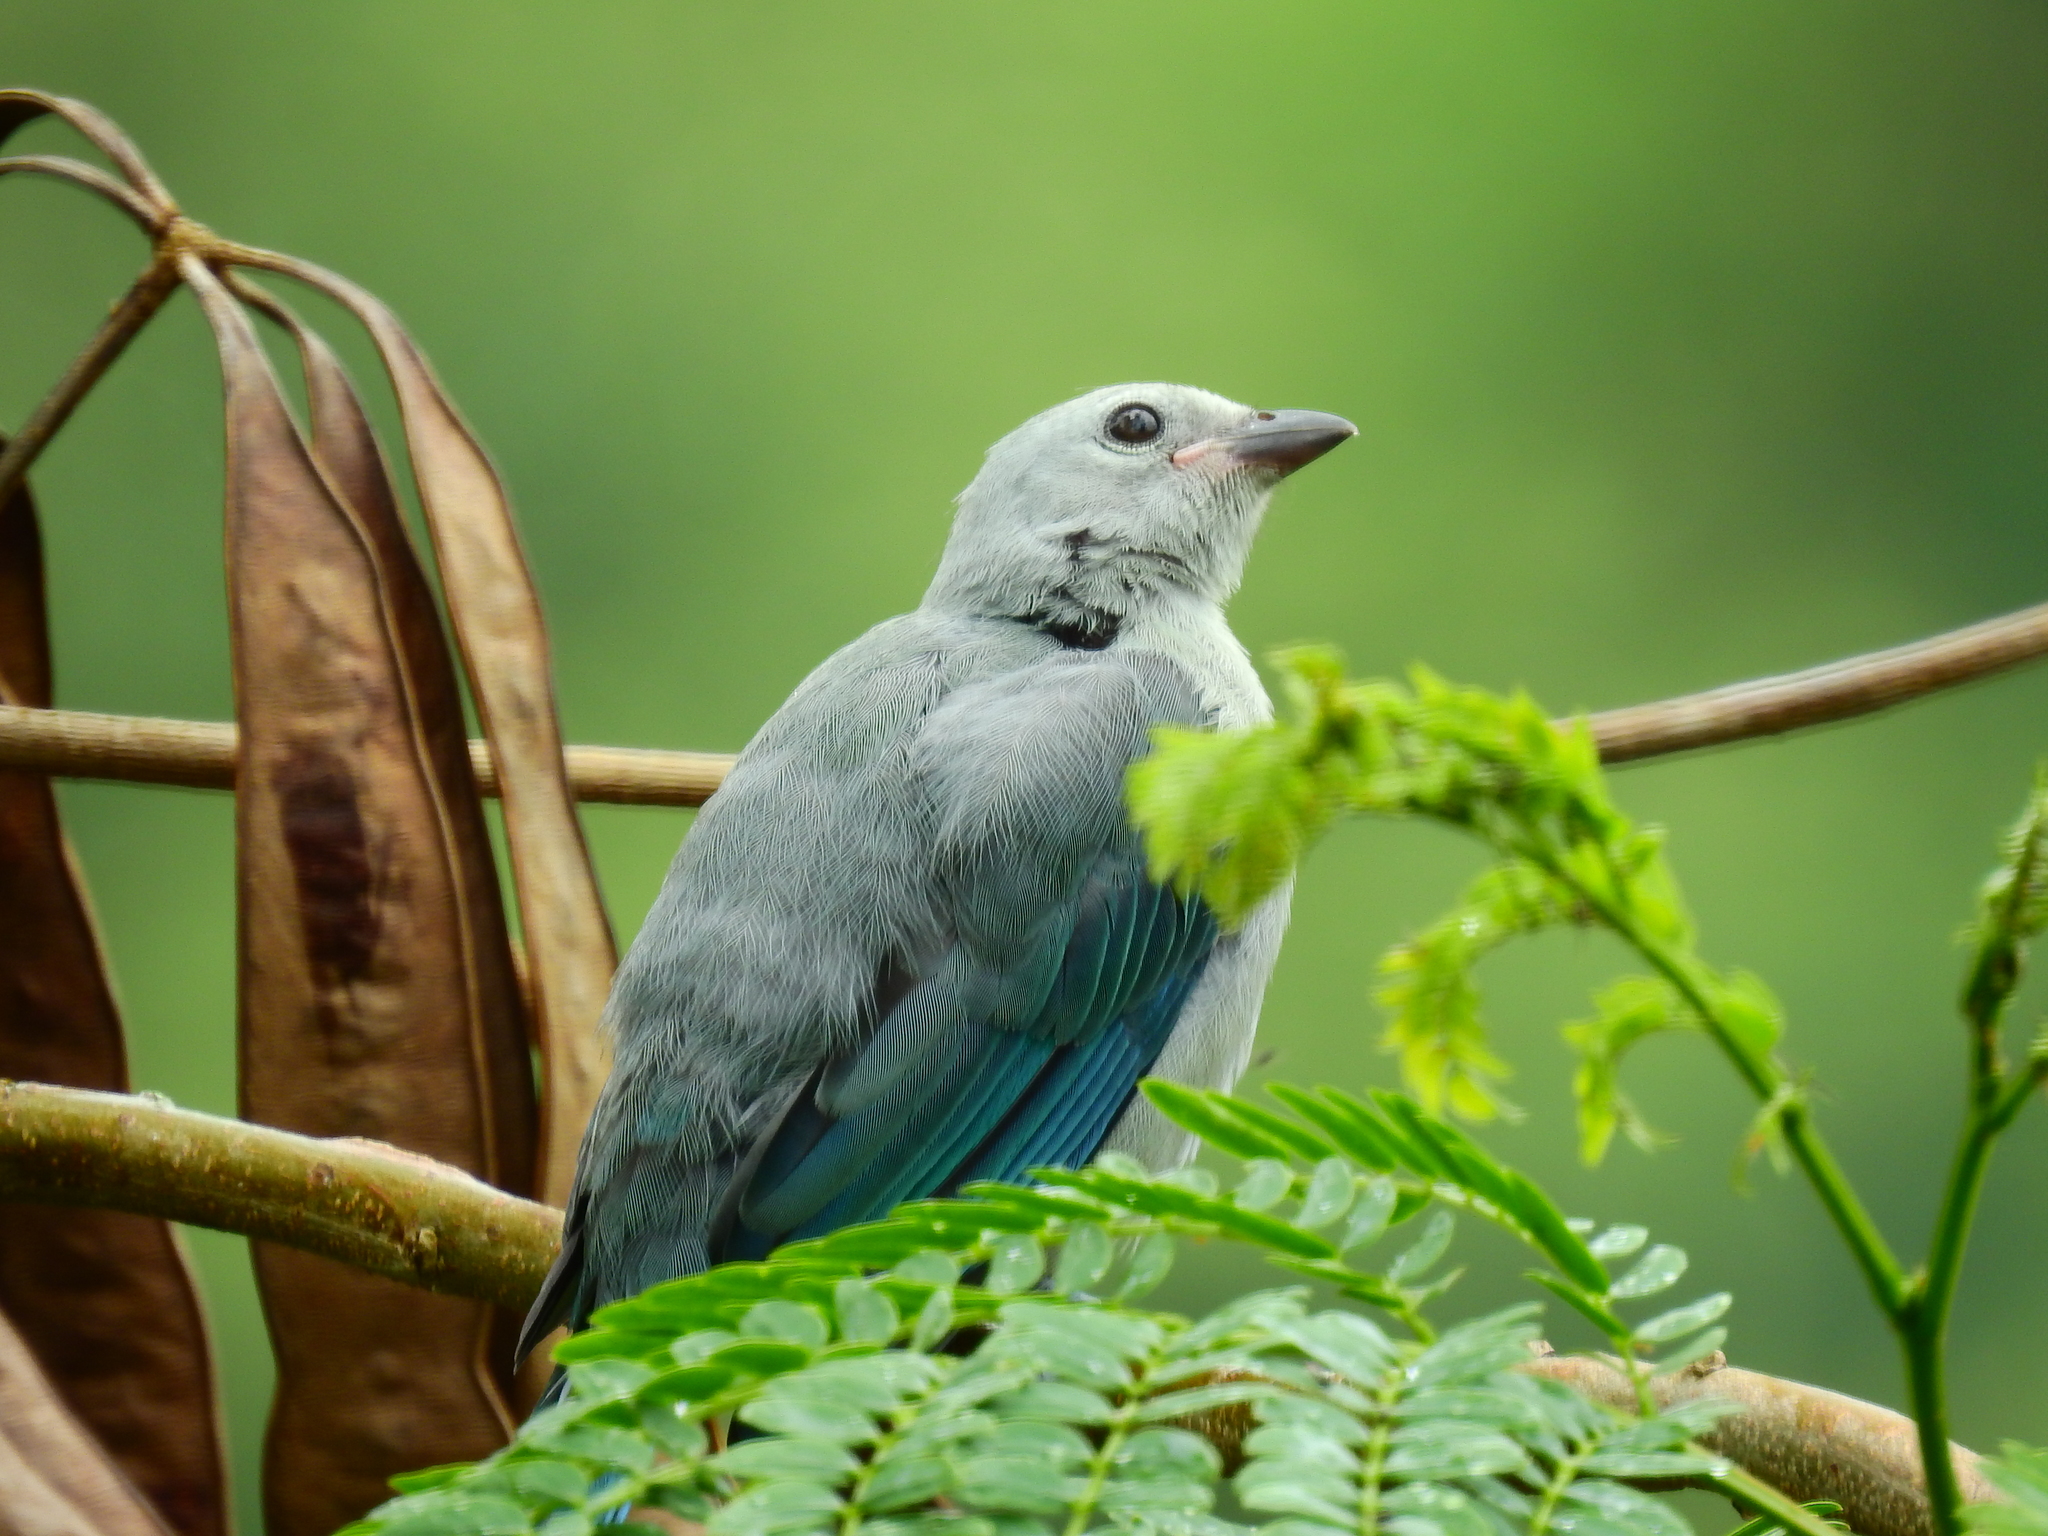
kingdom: Animalia
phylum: Chordata
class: Aves
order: Passeriformes
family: Thraupidae
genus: Thraupis
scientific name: Thraupis episcopus
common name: Blue-grey tanager
